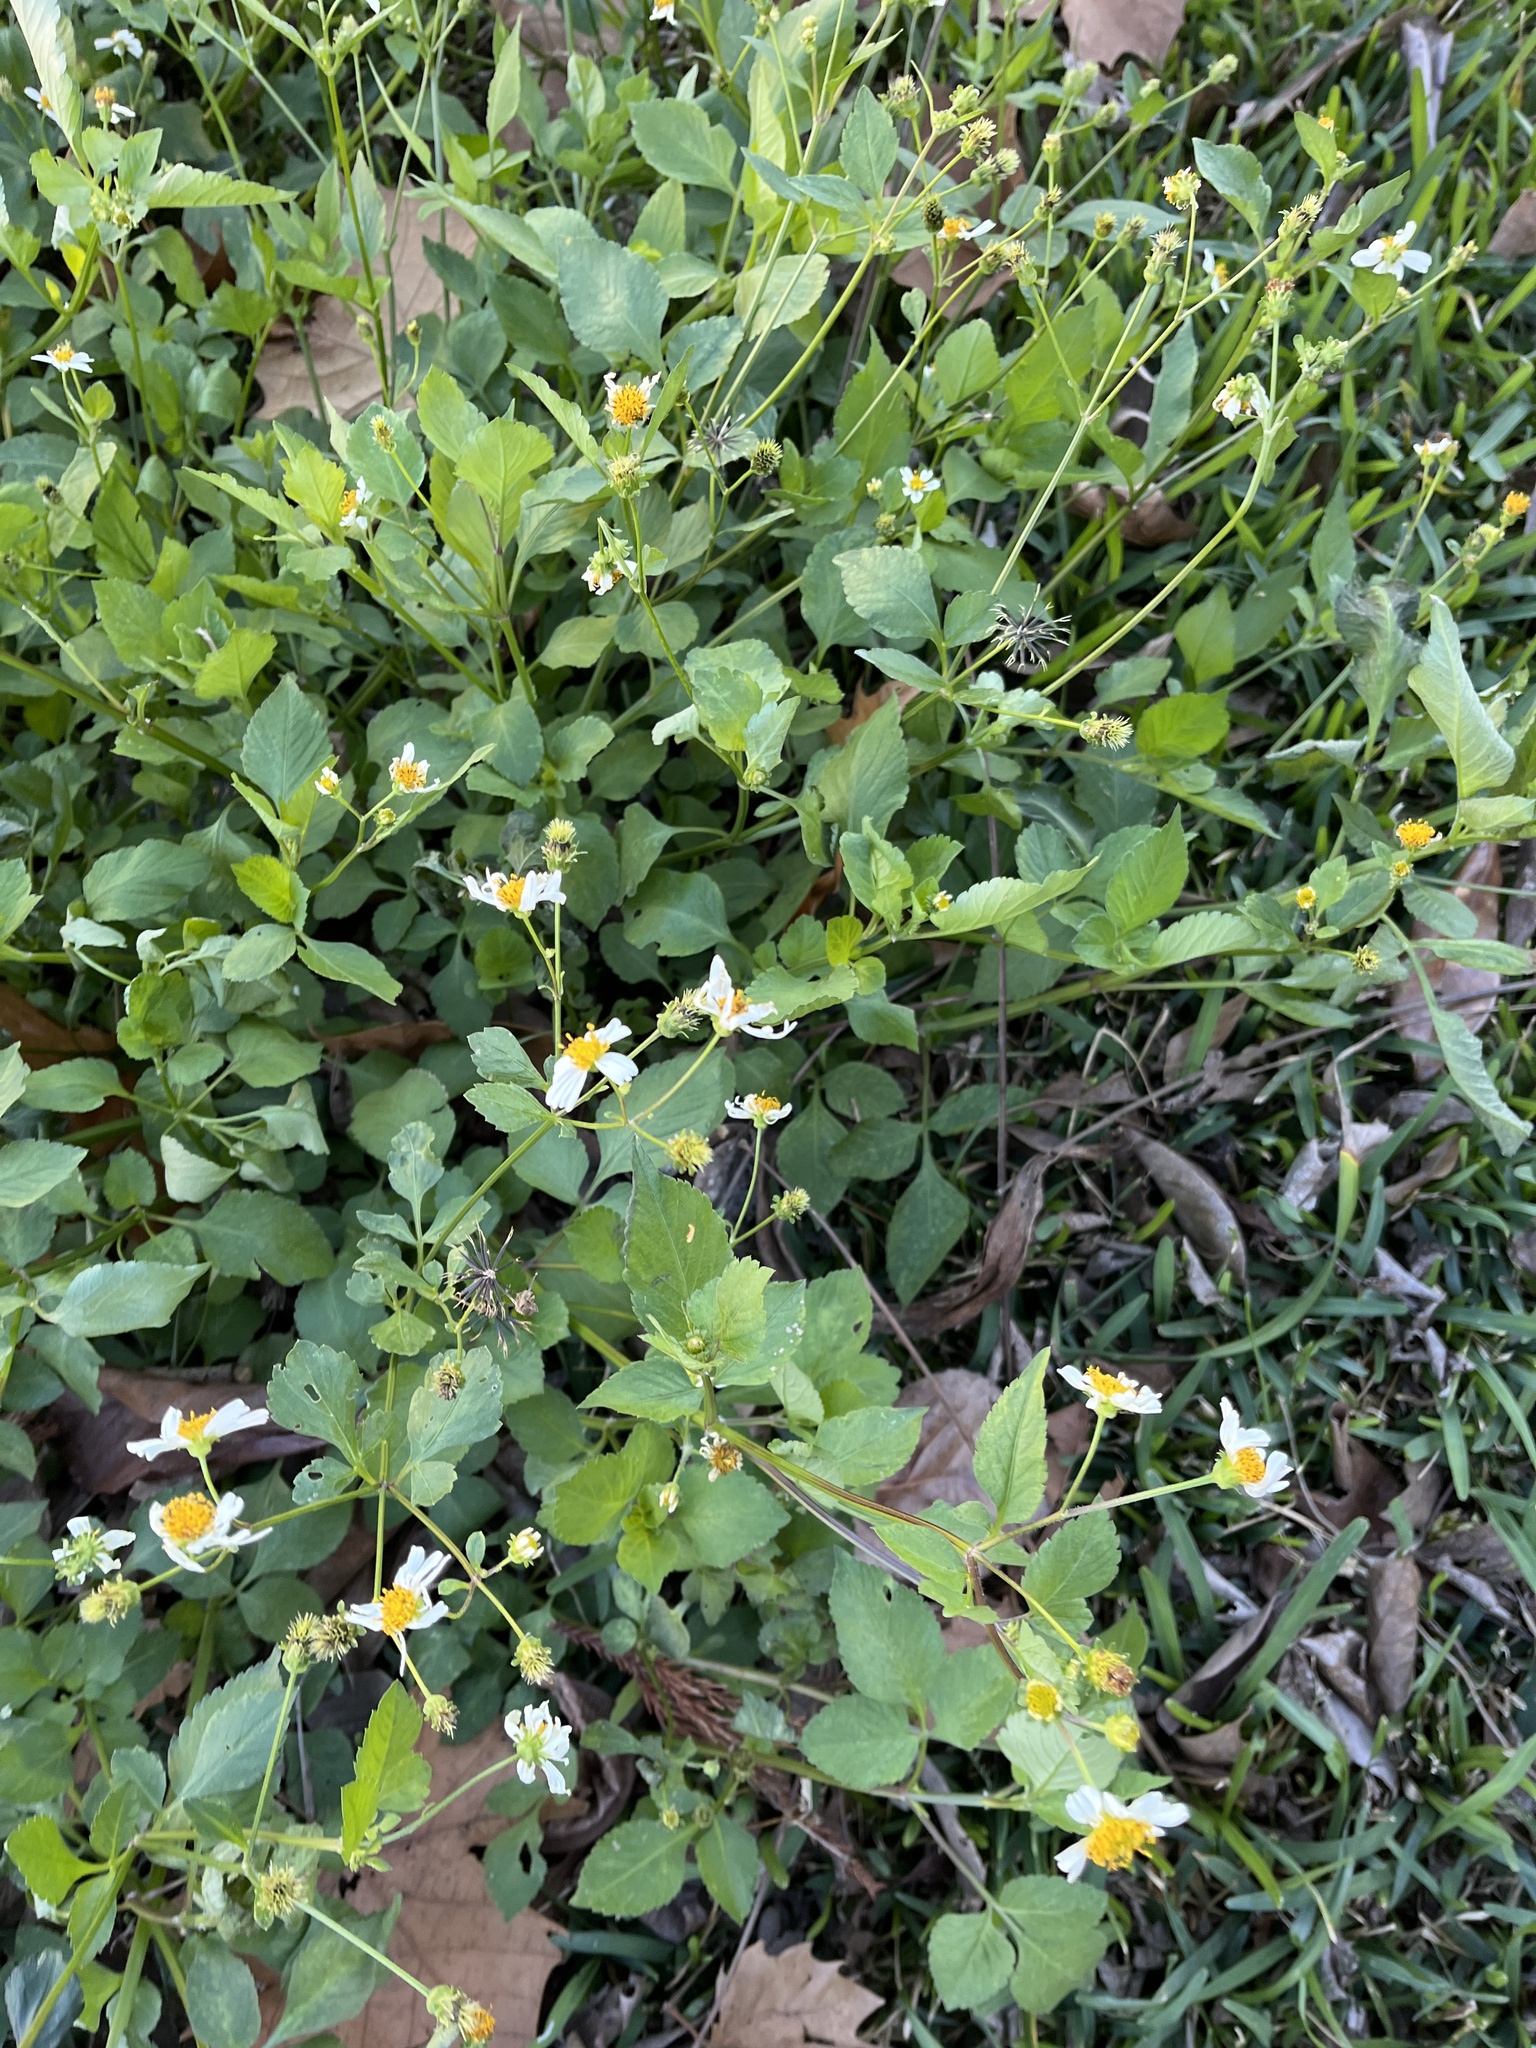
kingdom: Plantae
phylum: Tracheophyta
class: Magnoliopsida
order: Asterales
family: Asteraceae
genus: Bidens
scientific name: Bidens alba
